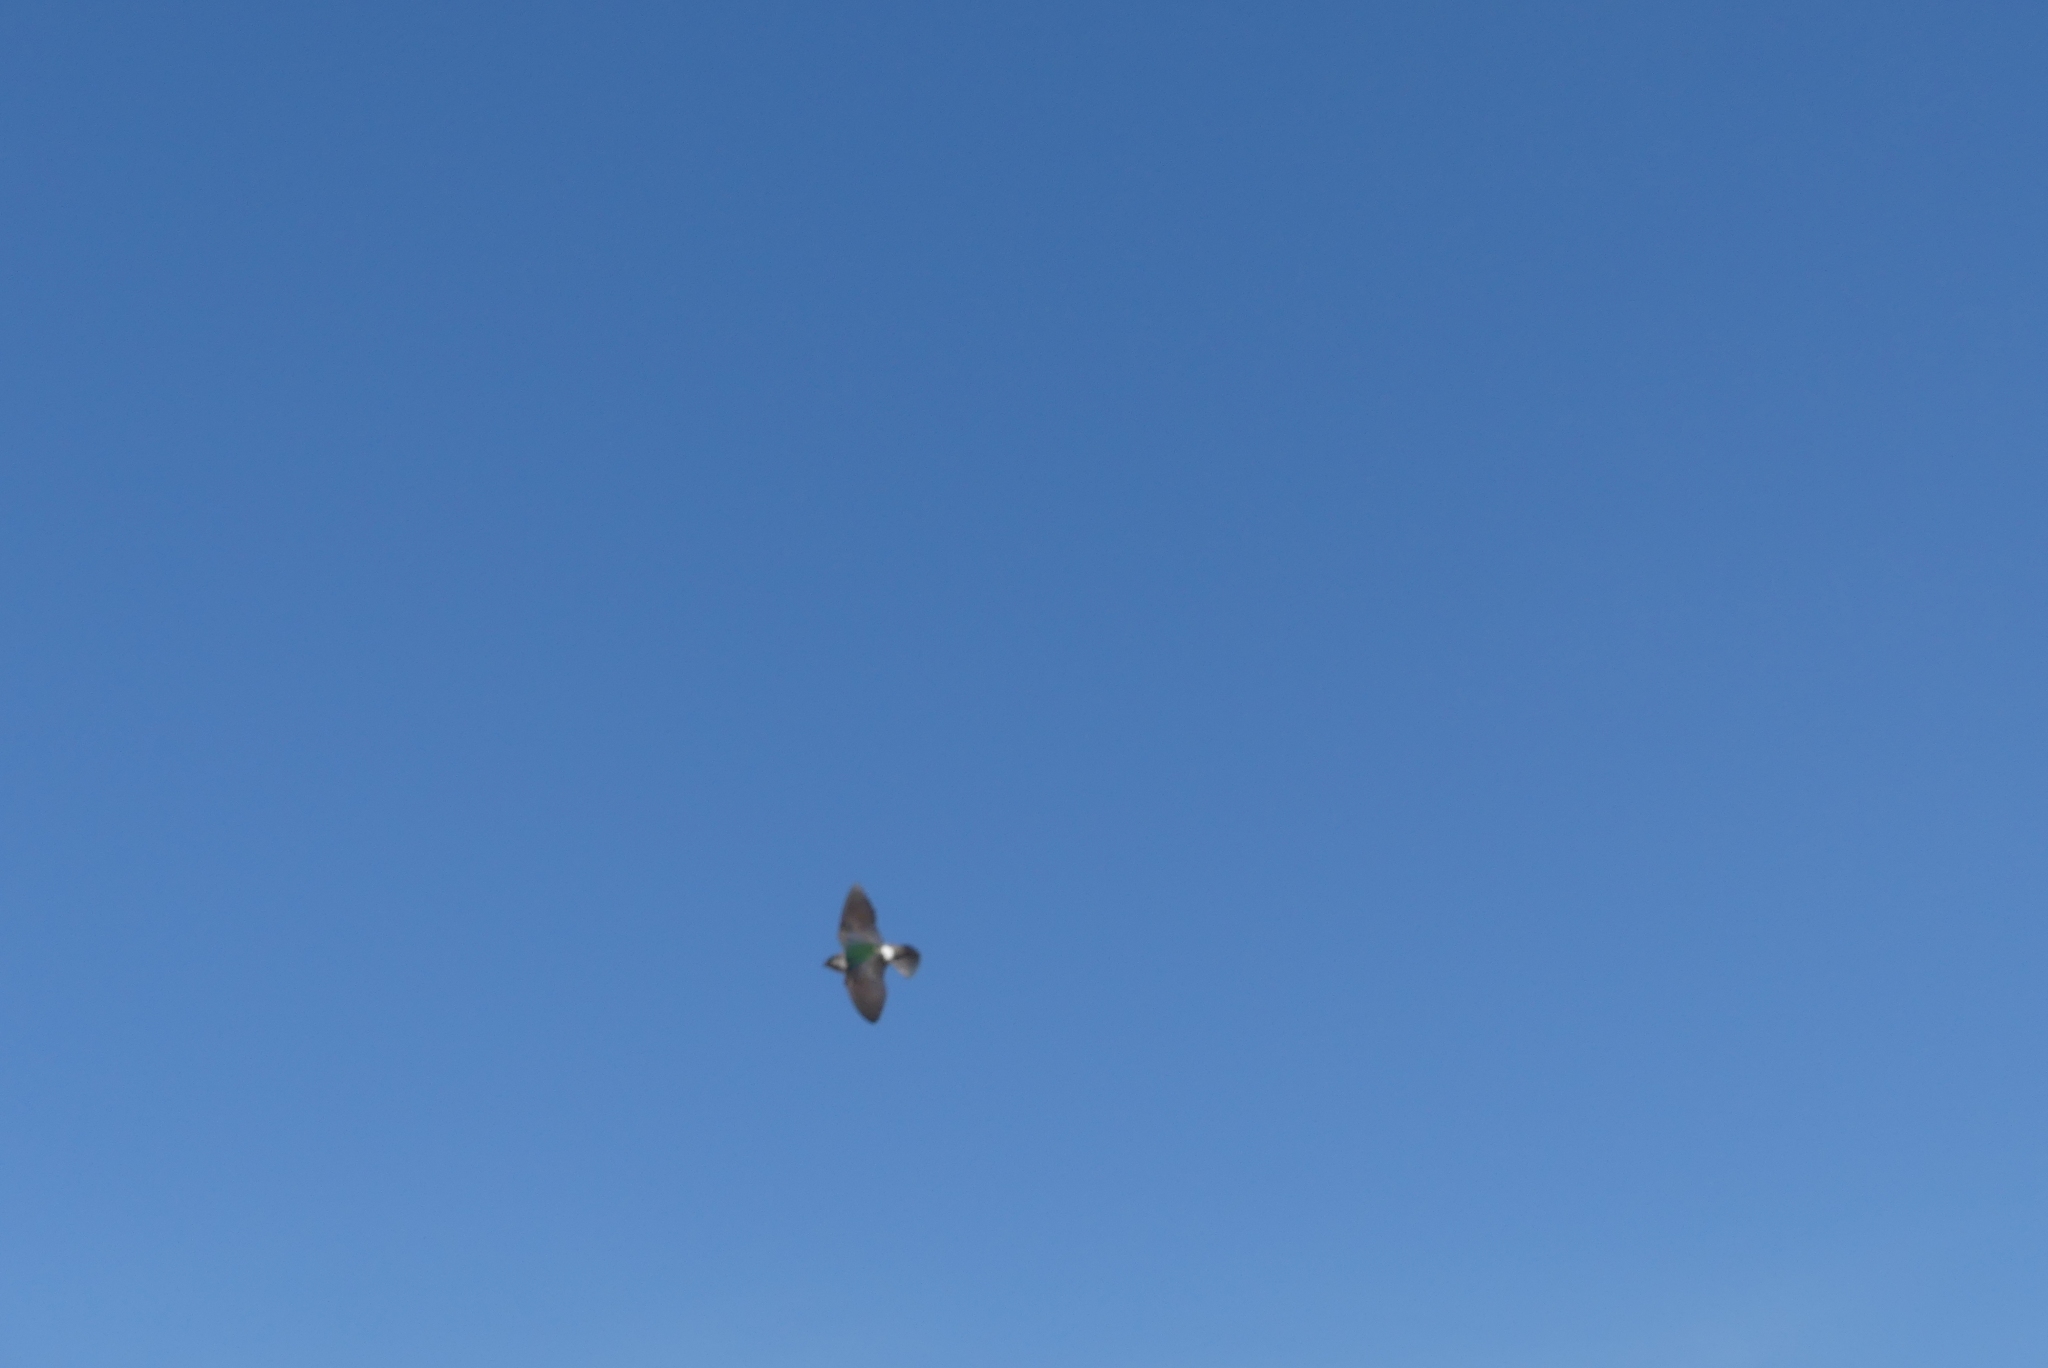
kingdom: Animalia
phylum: Chordata
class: Aves
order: Passeriformes
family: Hirundinidae
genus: Tachycineta
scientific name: Tachycineta thalassina
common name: Violet-green swallow
